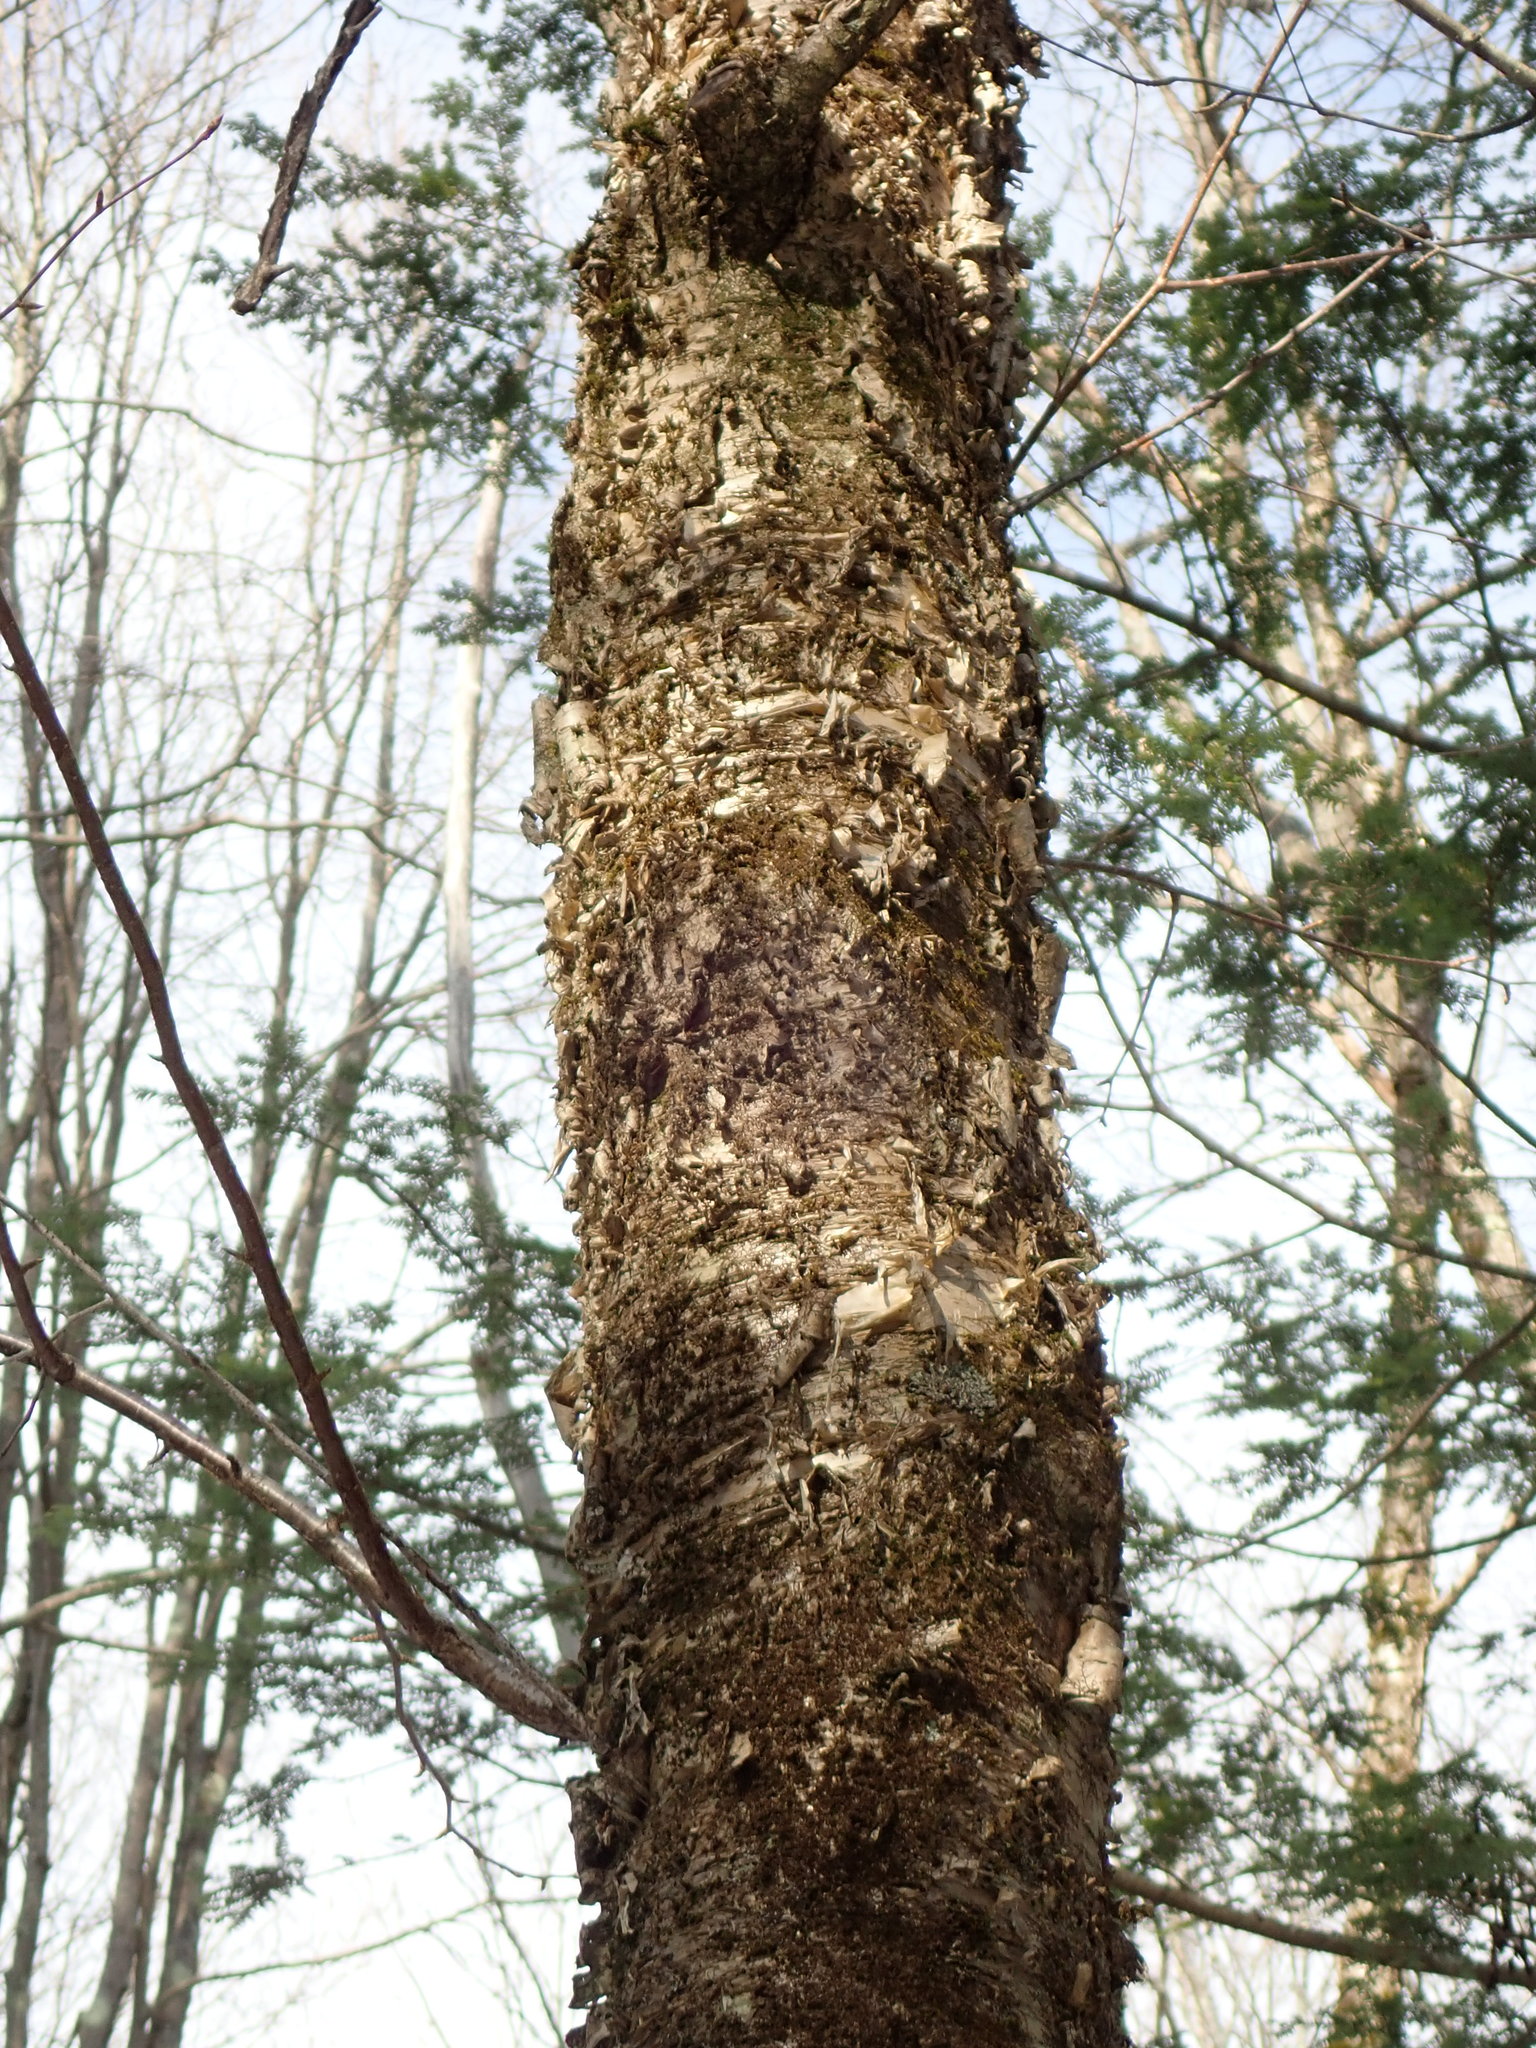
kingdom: Plantae
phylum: Tracheophyta
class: Magnoliopsida
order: Fagales
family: Betulaceae
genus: Betula
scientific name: Betula alleghaniensis
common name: Yellow birch
